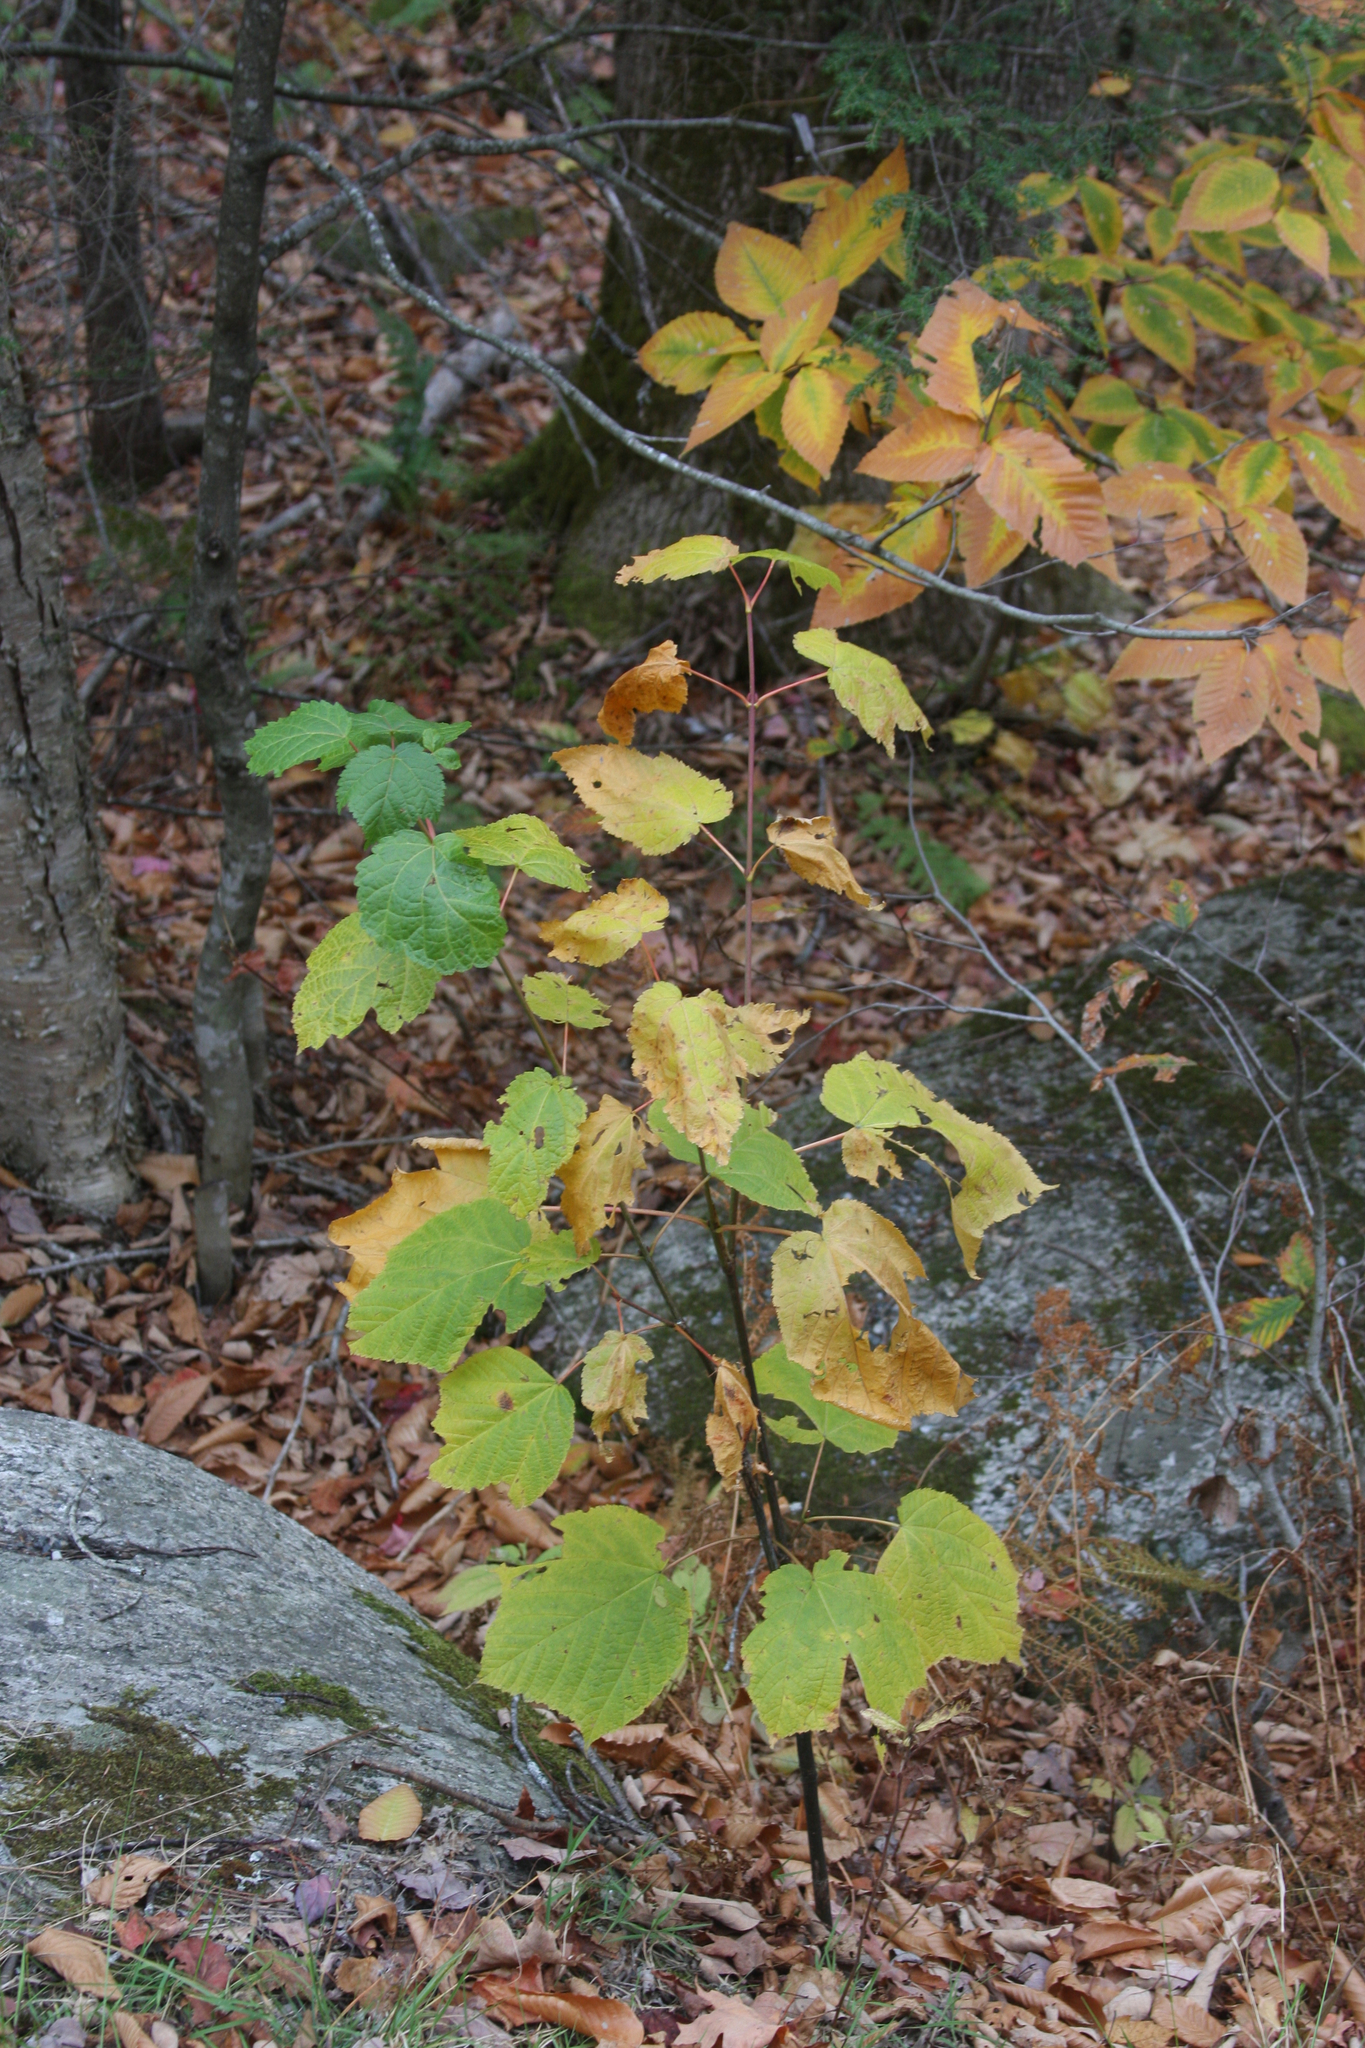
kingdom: Plantae
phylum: Tracheophyta
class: Magnoliopsida
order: Sapindales
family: Sapindaceae
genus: Acer
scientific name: Acer spicatum
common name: Mountain maple
